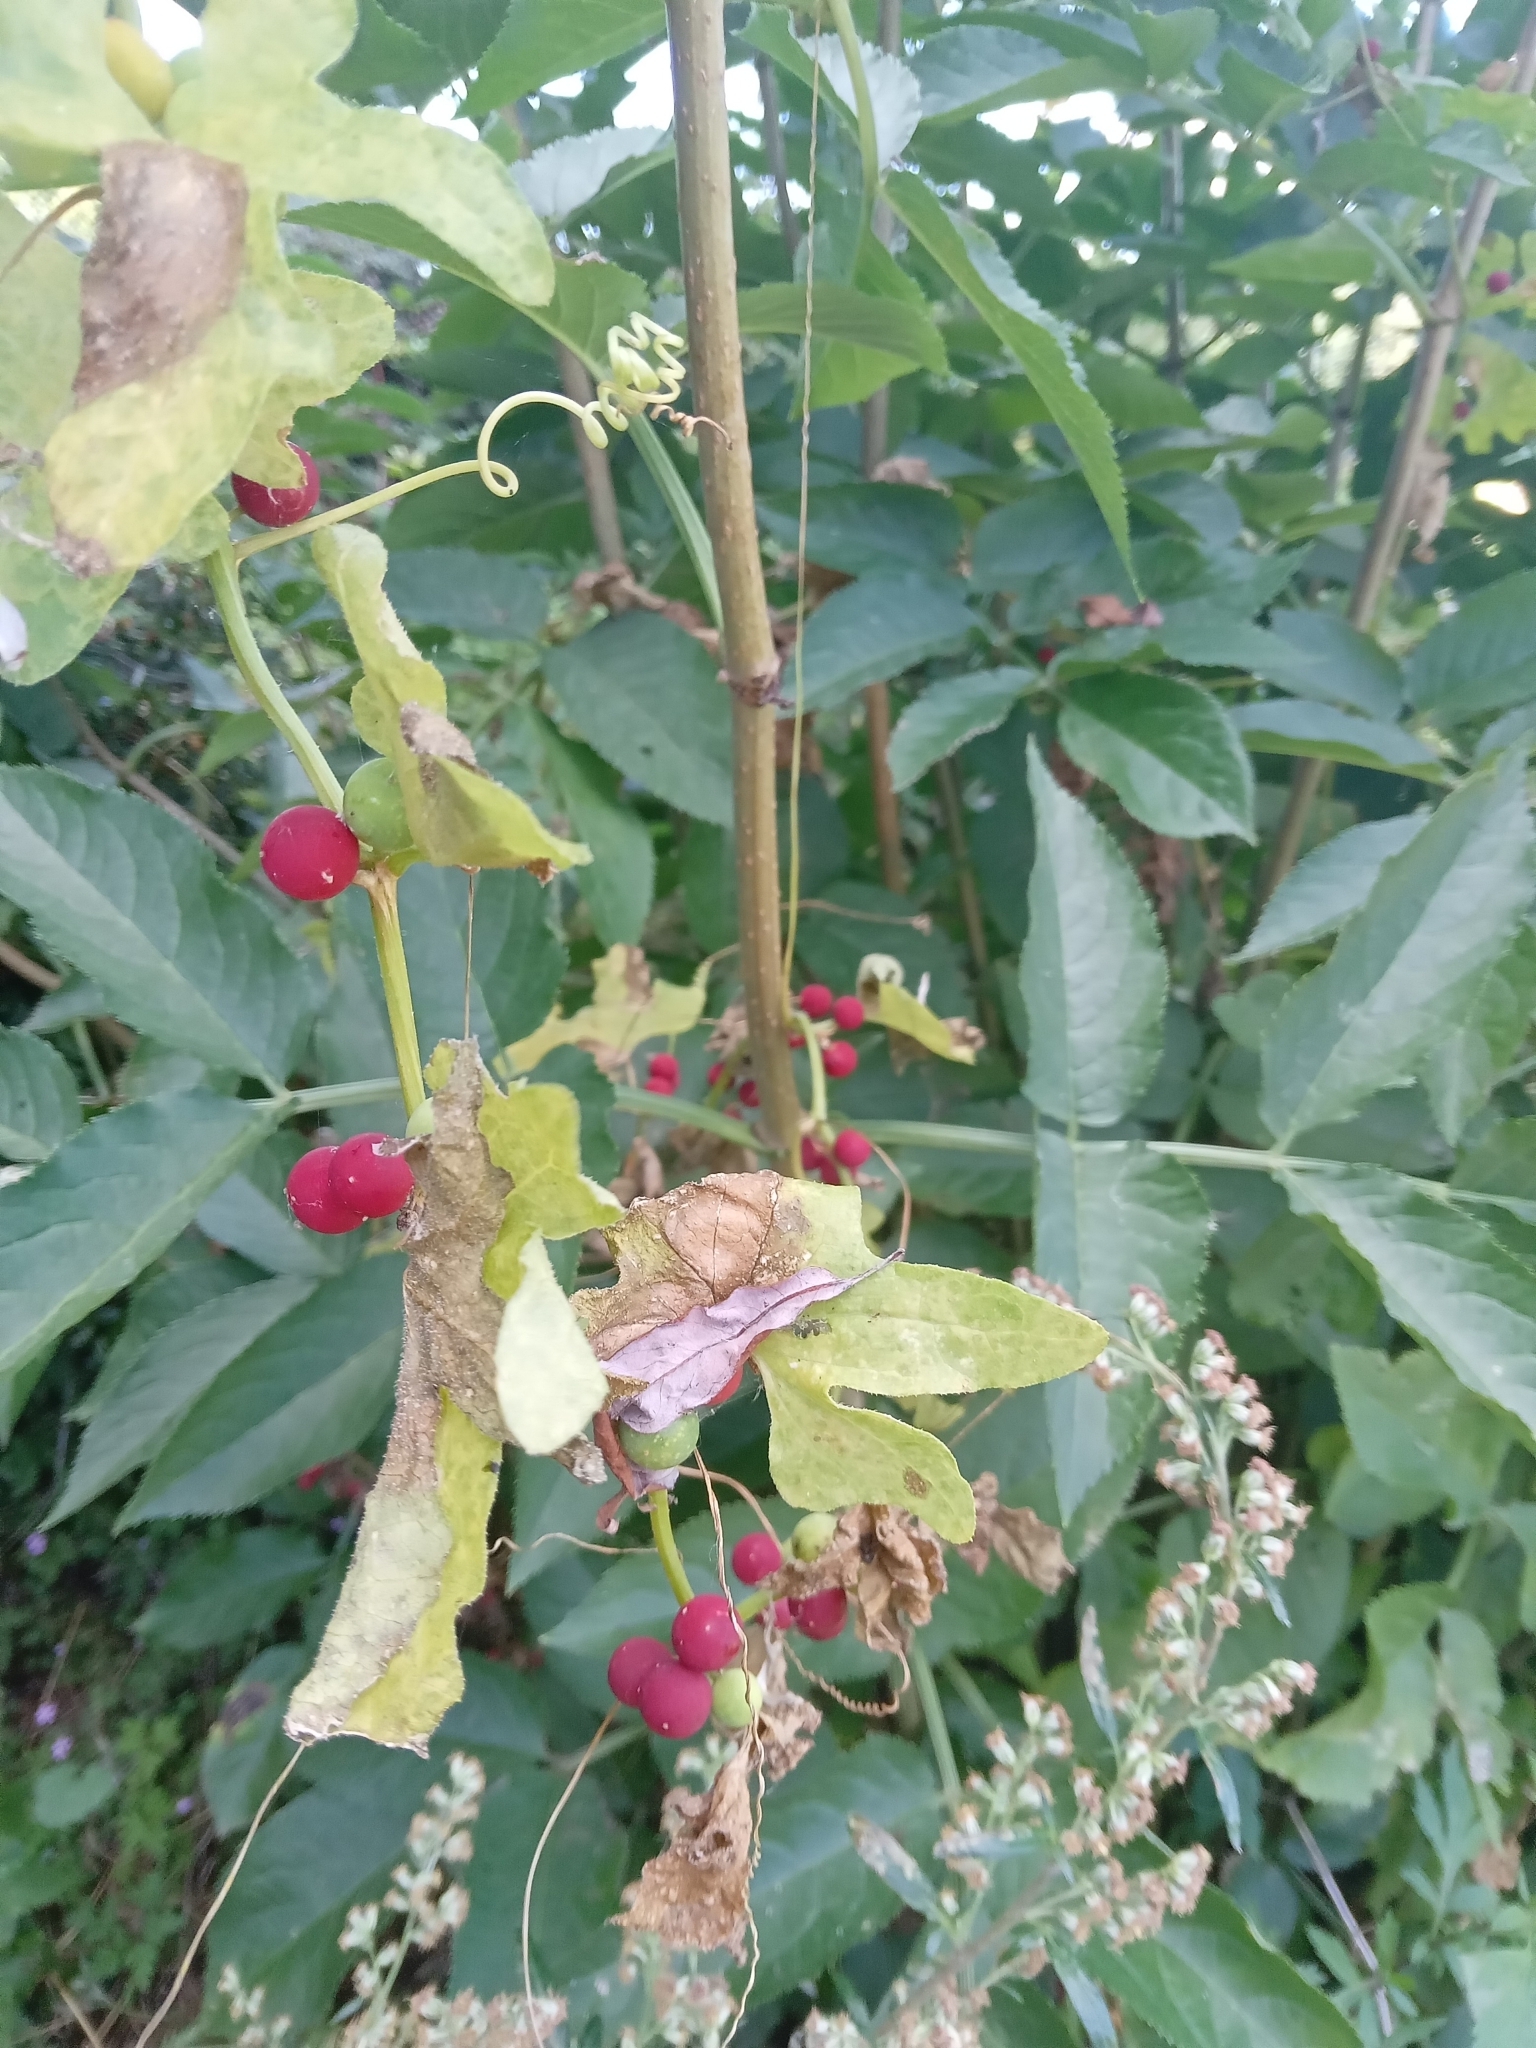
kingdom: Plantae
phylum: Tracheophyta
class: Magnoliopsida
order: Cucurbitales
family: Cucurbitaceae
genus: Bryonia
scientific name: Bryonia dioica
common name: White bryony
